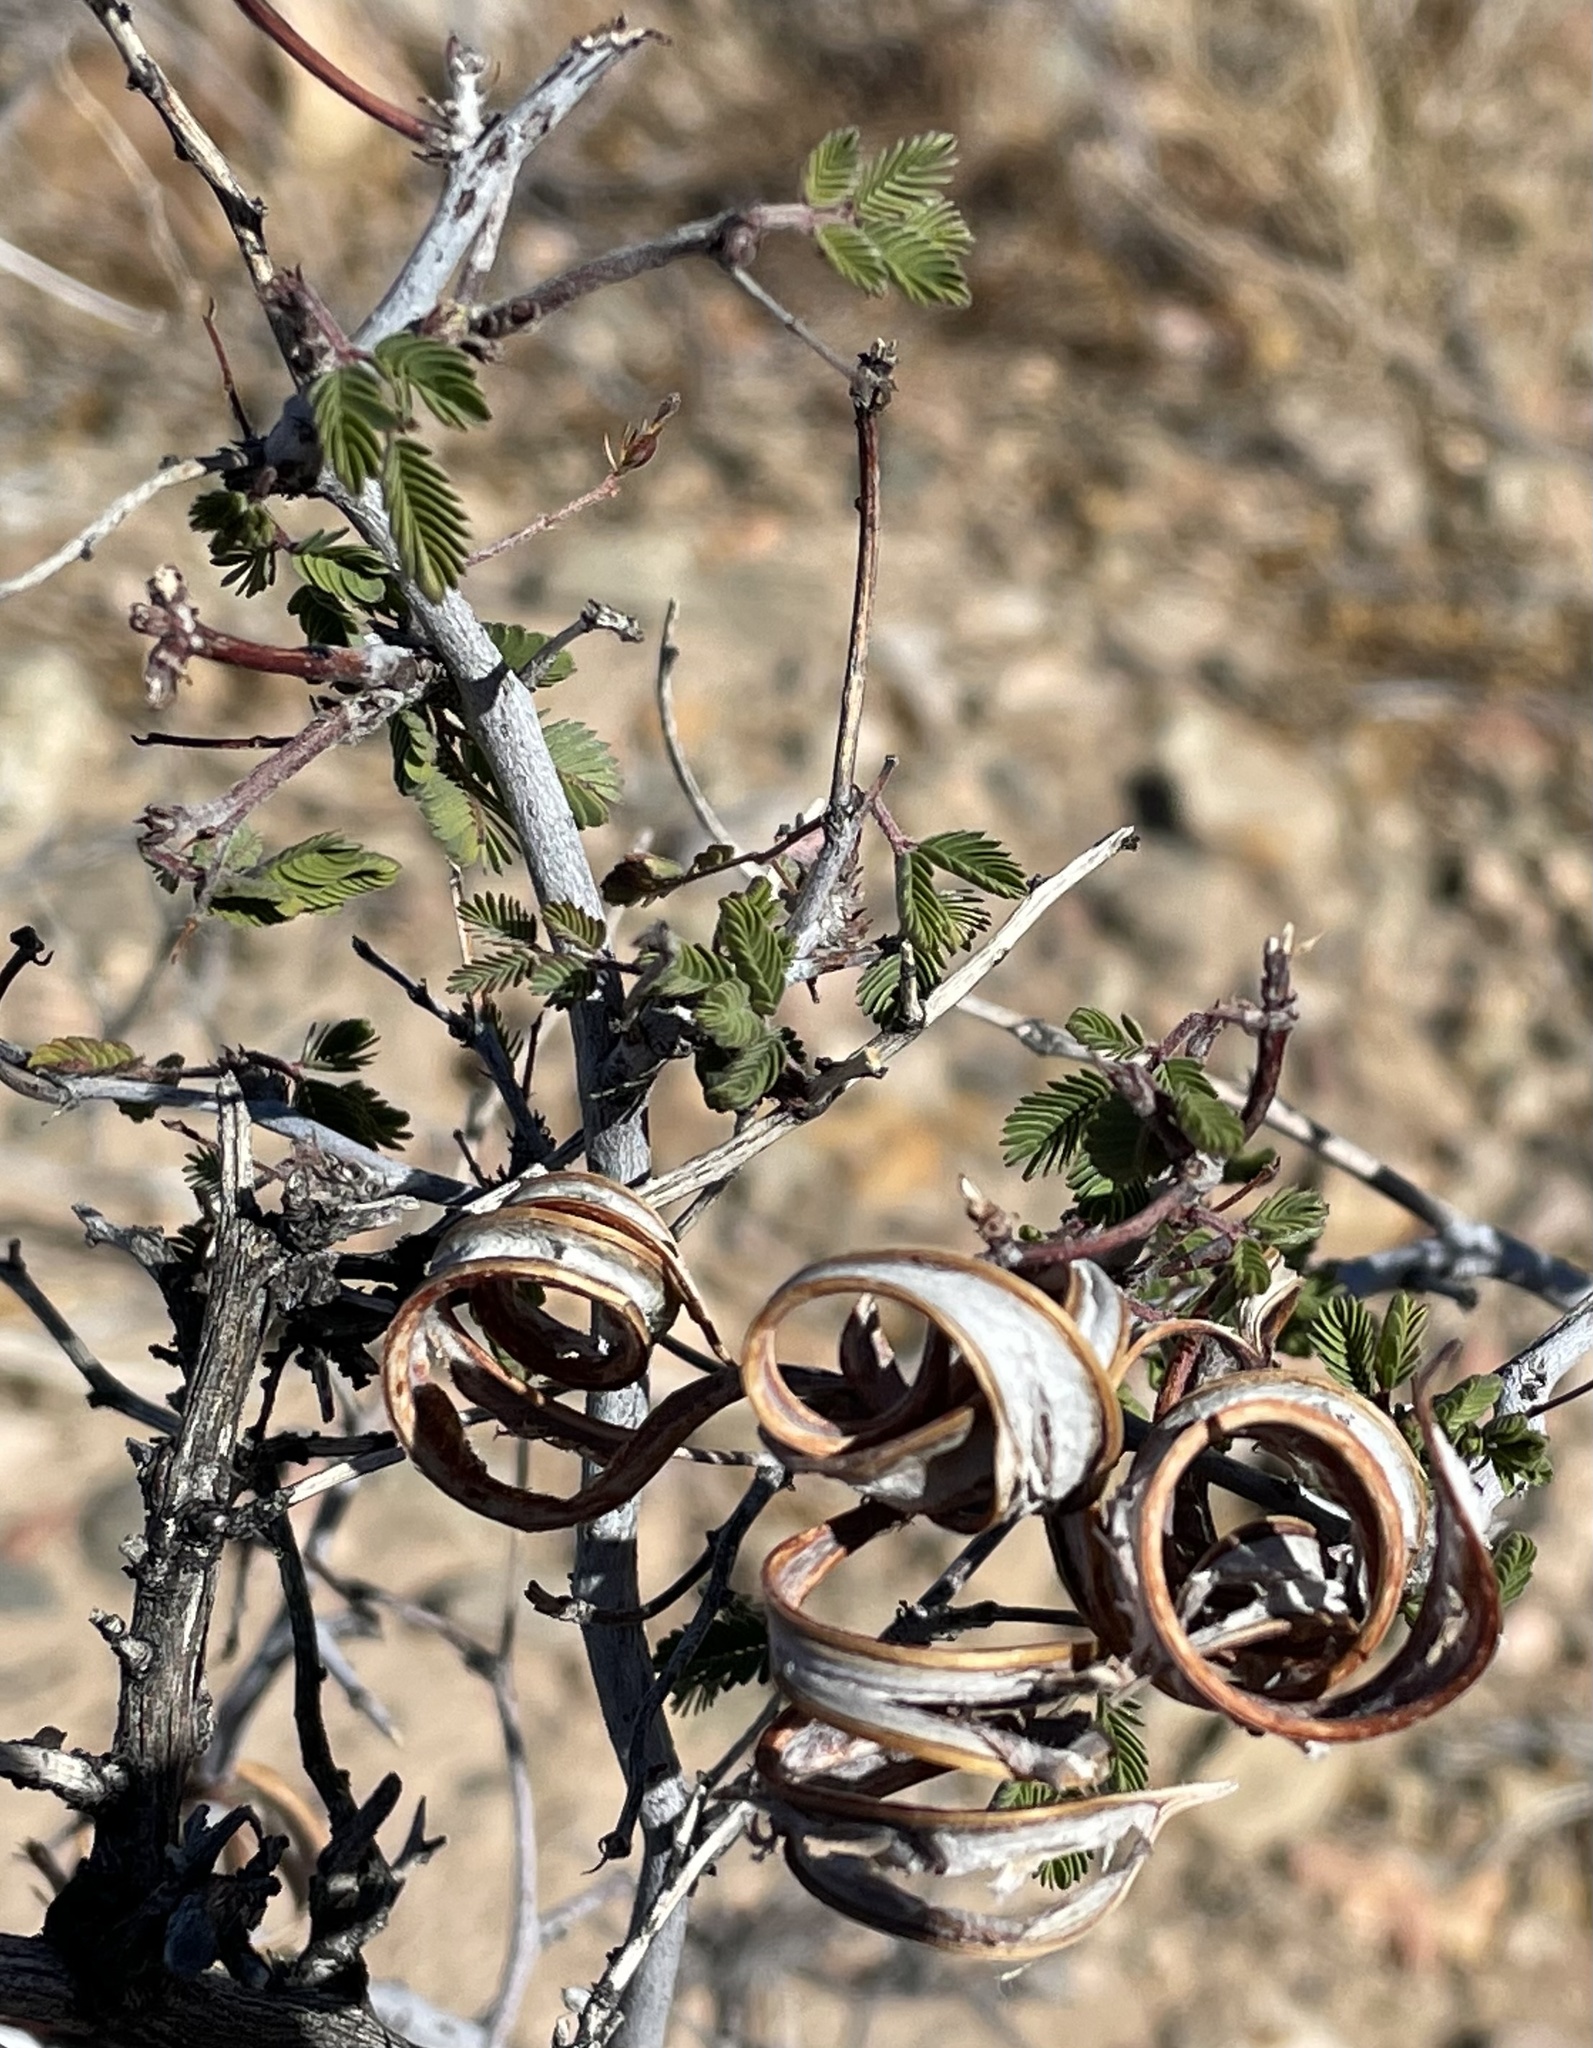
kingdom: Plantae
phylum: Tracheophyta
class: Magnoliopsida
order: Fabales
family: Fabaceae
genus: Calliandra
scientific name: Calliandra eriophylla
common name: Fairy-duster
